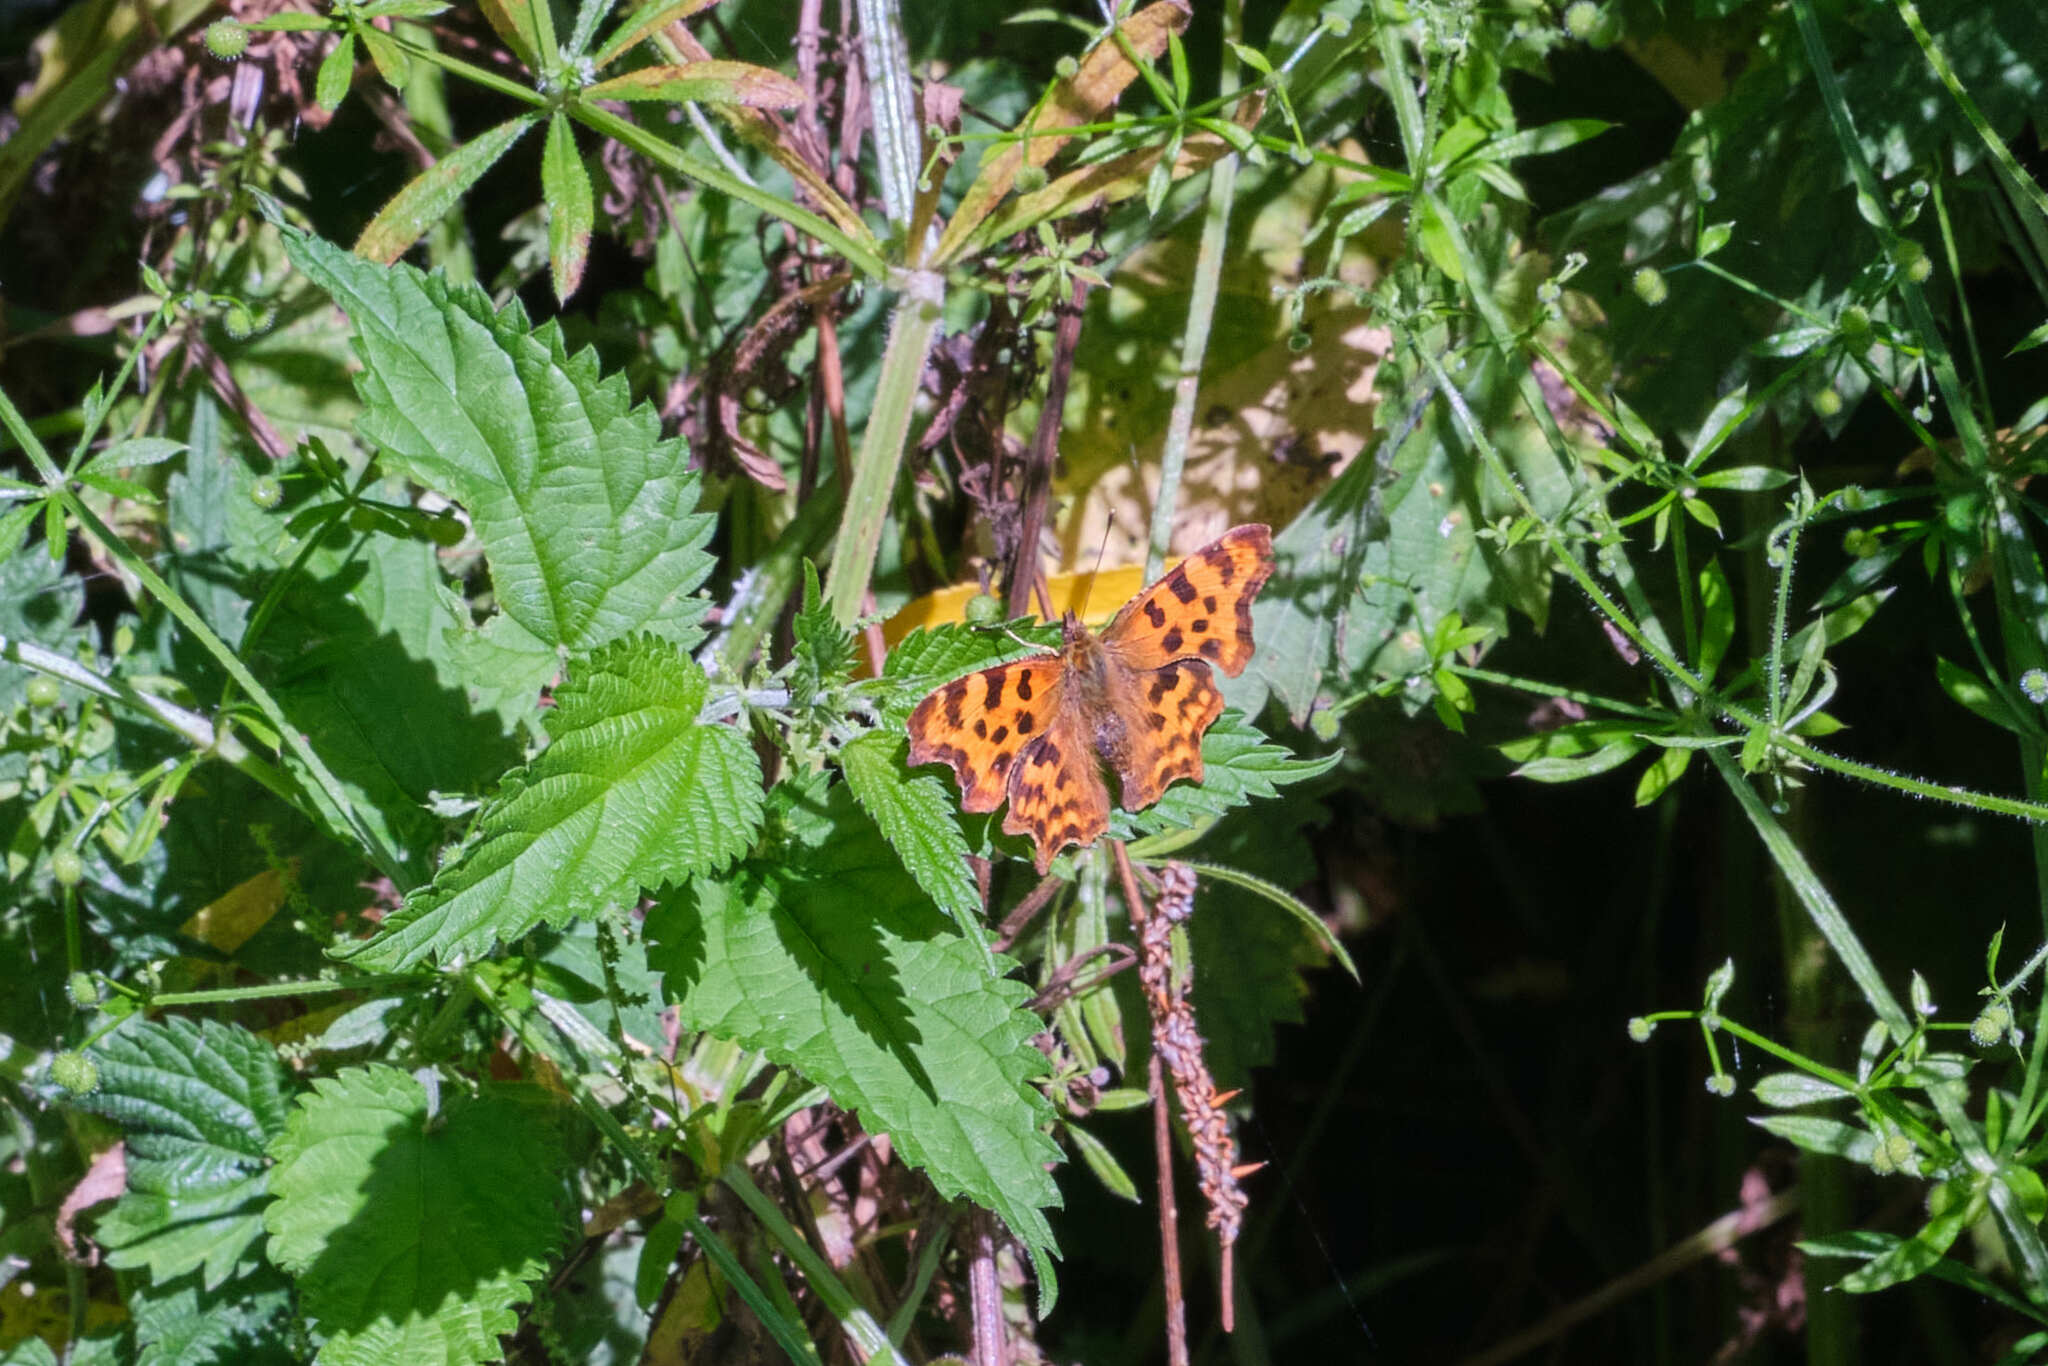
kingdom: Animalia
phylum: Arthropoda
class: Insecta
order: Lepidoptera
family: Nymphalidae
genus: Polygonia
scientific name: Polygonia c-album
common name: Comma
